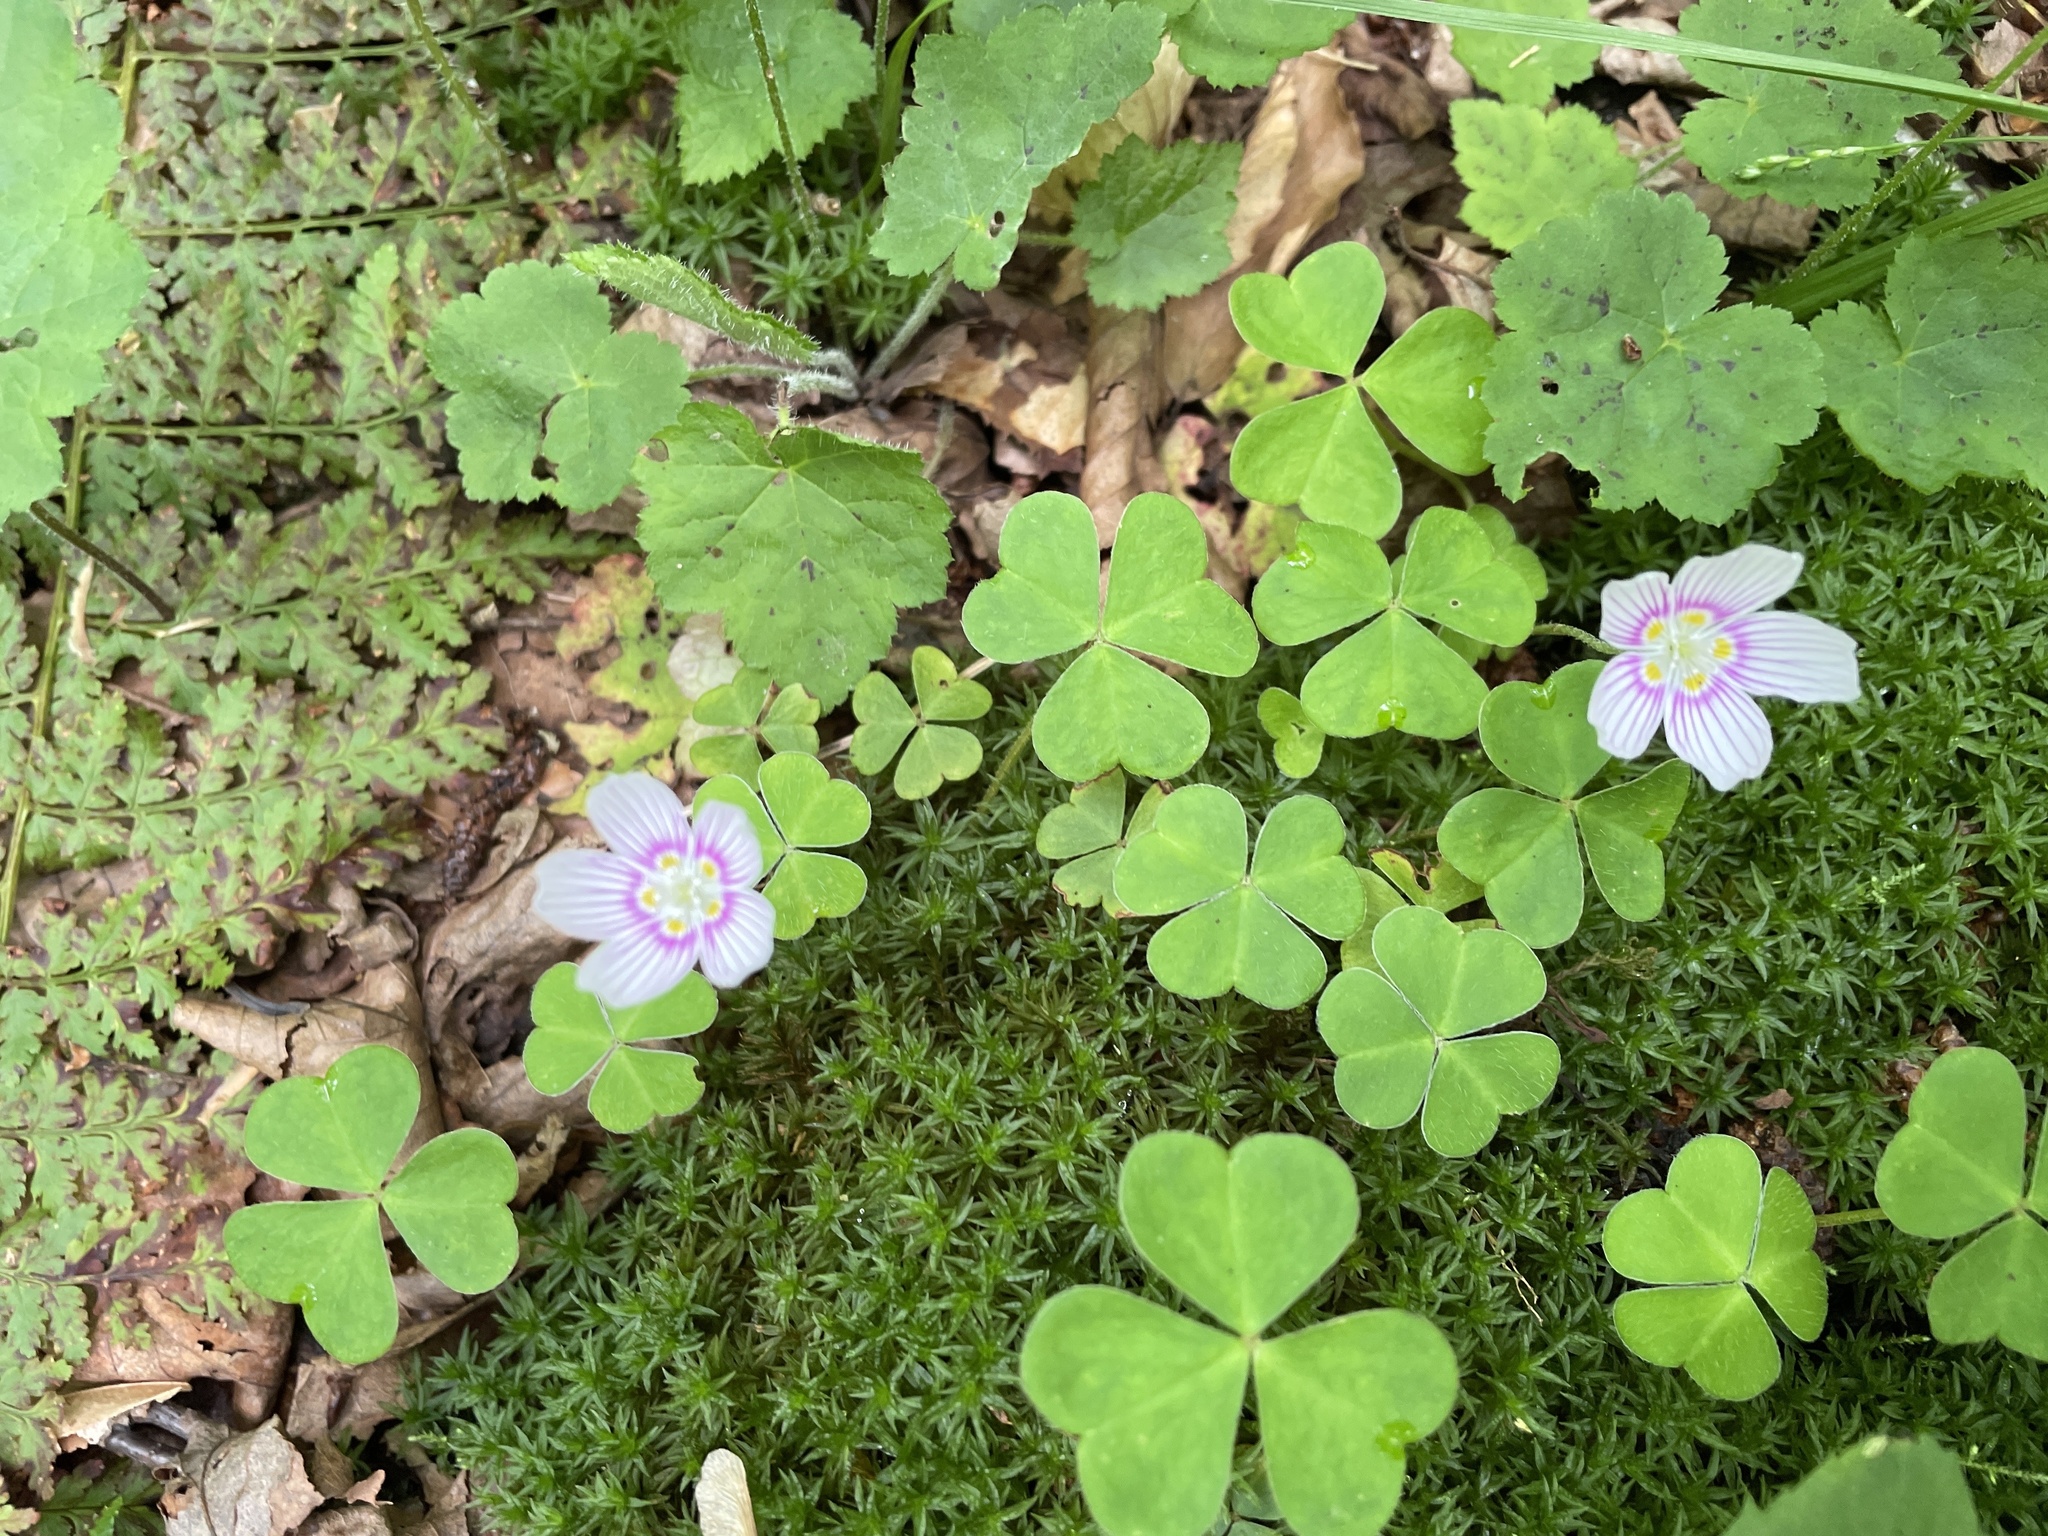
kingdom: Plantae
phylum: Tracheophyta
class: Magnoliopsida
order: Oxalidales
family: Oxalidaceae
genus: Oxalis
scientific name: Oxalis montana
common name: American wood-sorrel
